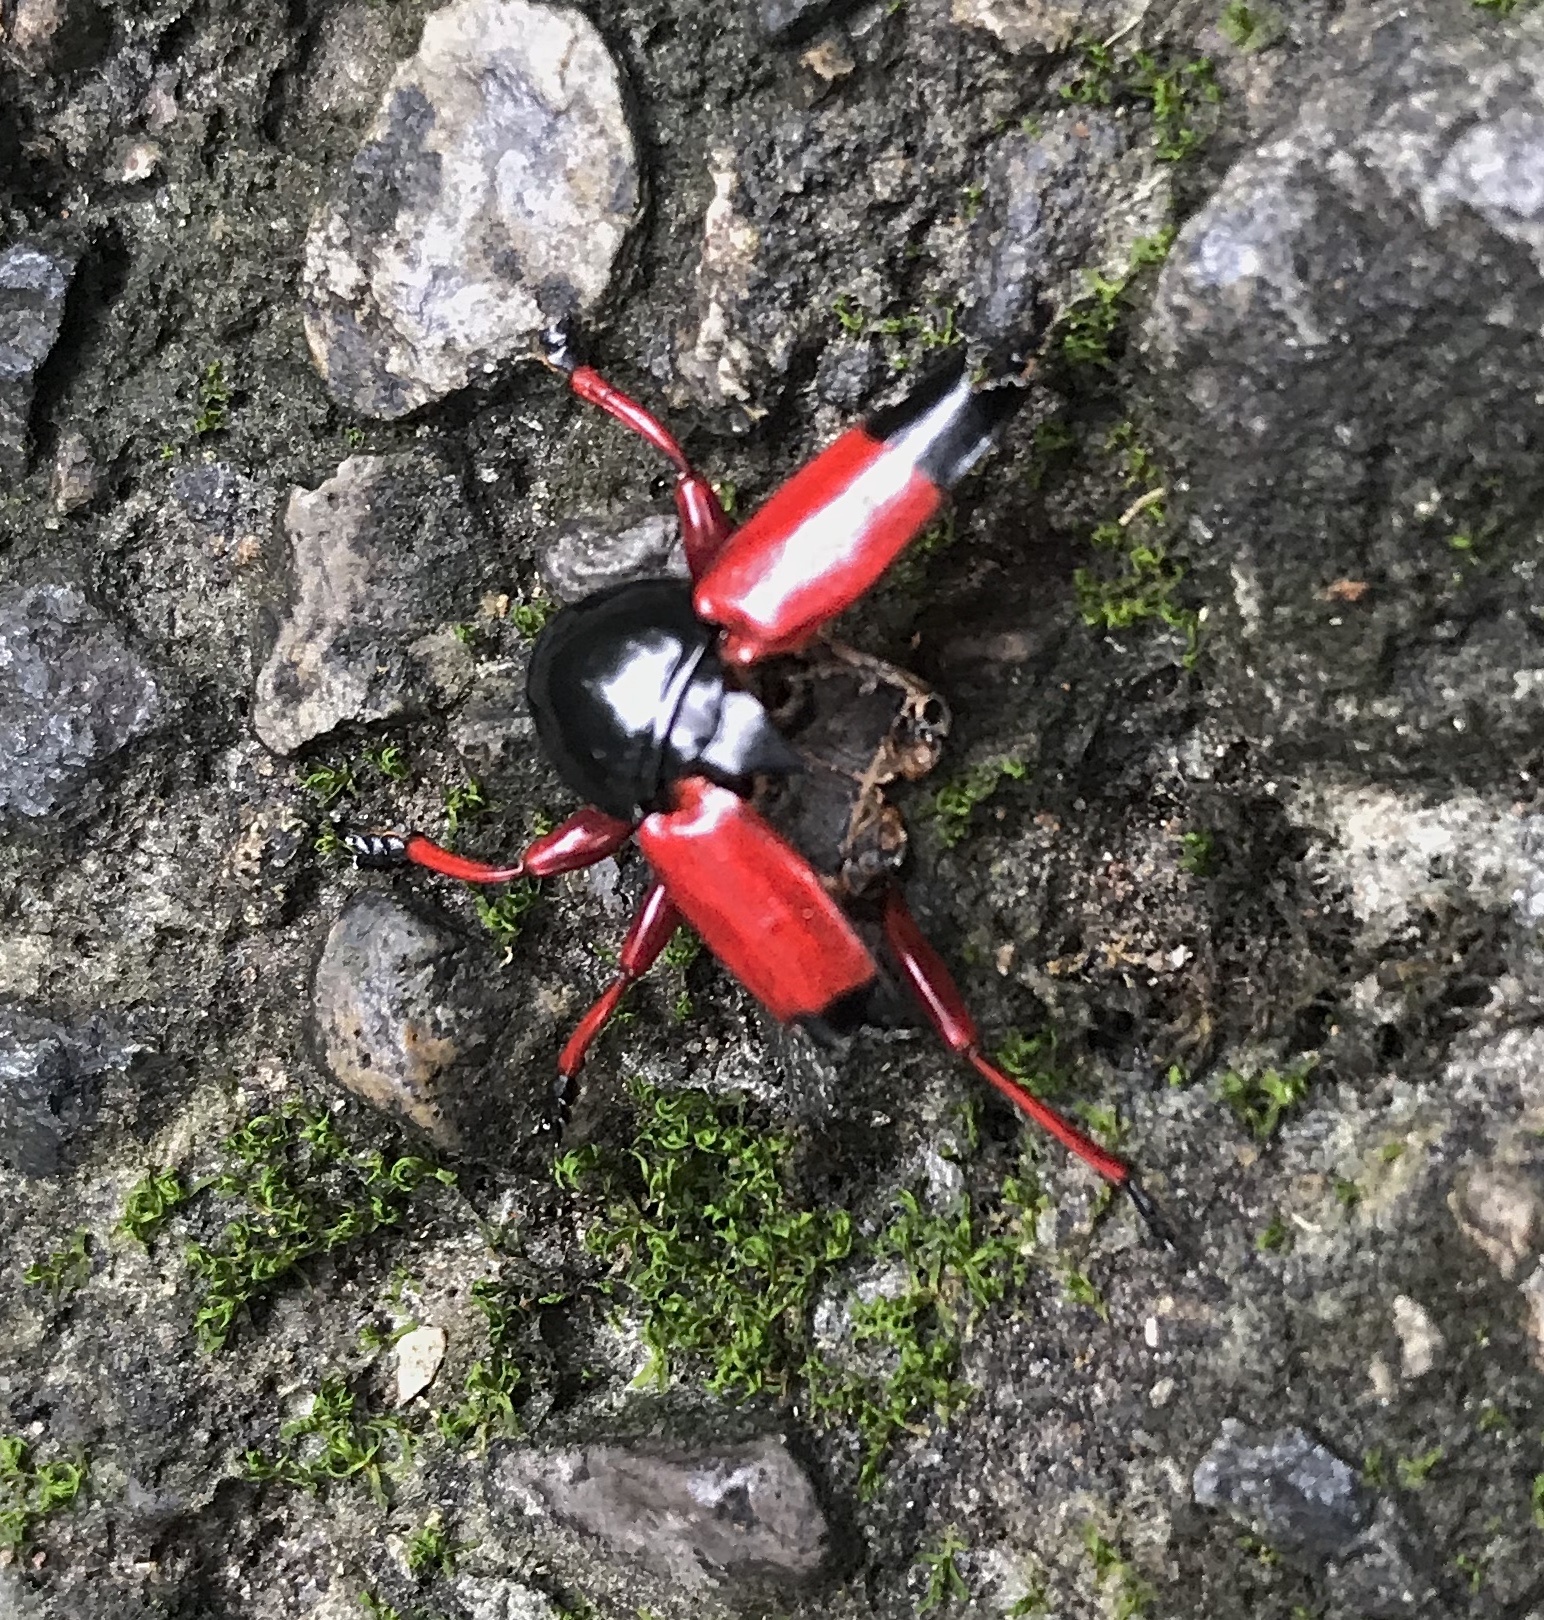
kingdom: Animalia
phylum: Arthropoda
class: Insecta
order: Coleoptera
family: Cerambycidae
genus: Lissonotus
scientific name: Lissonotus corallinus
